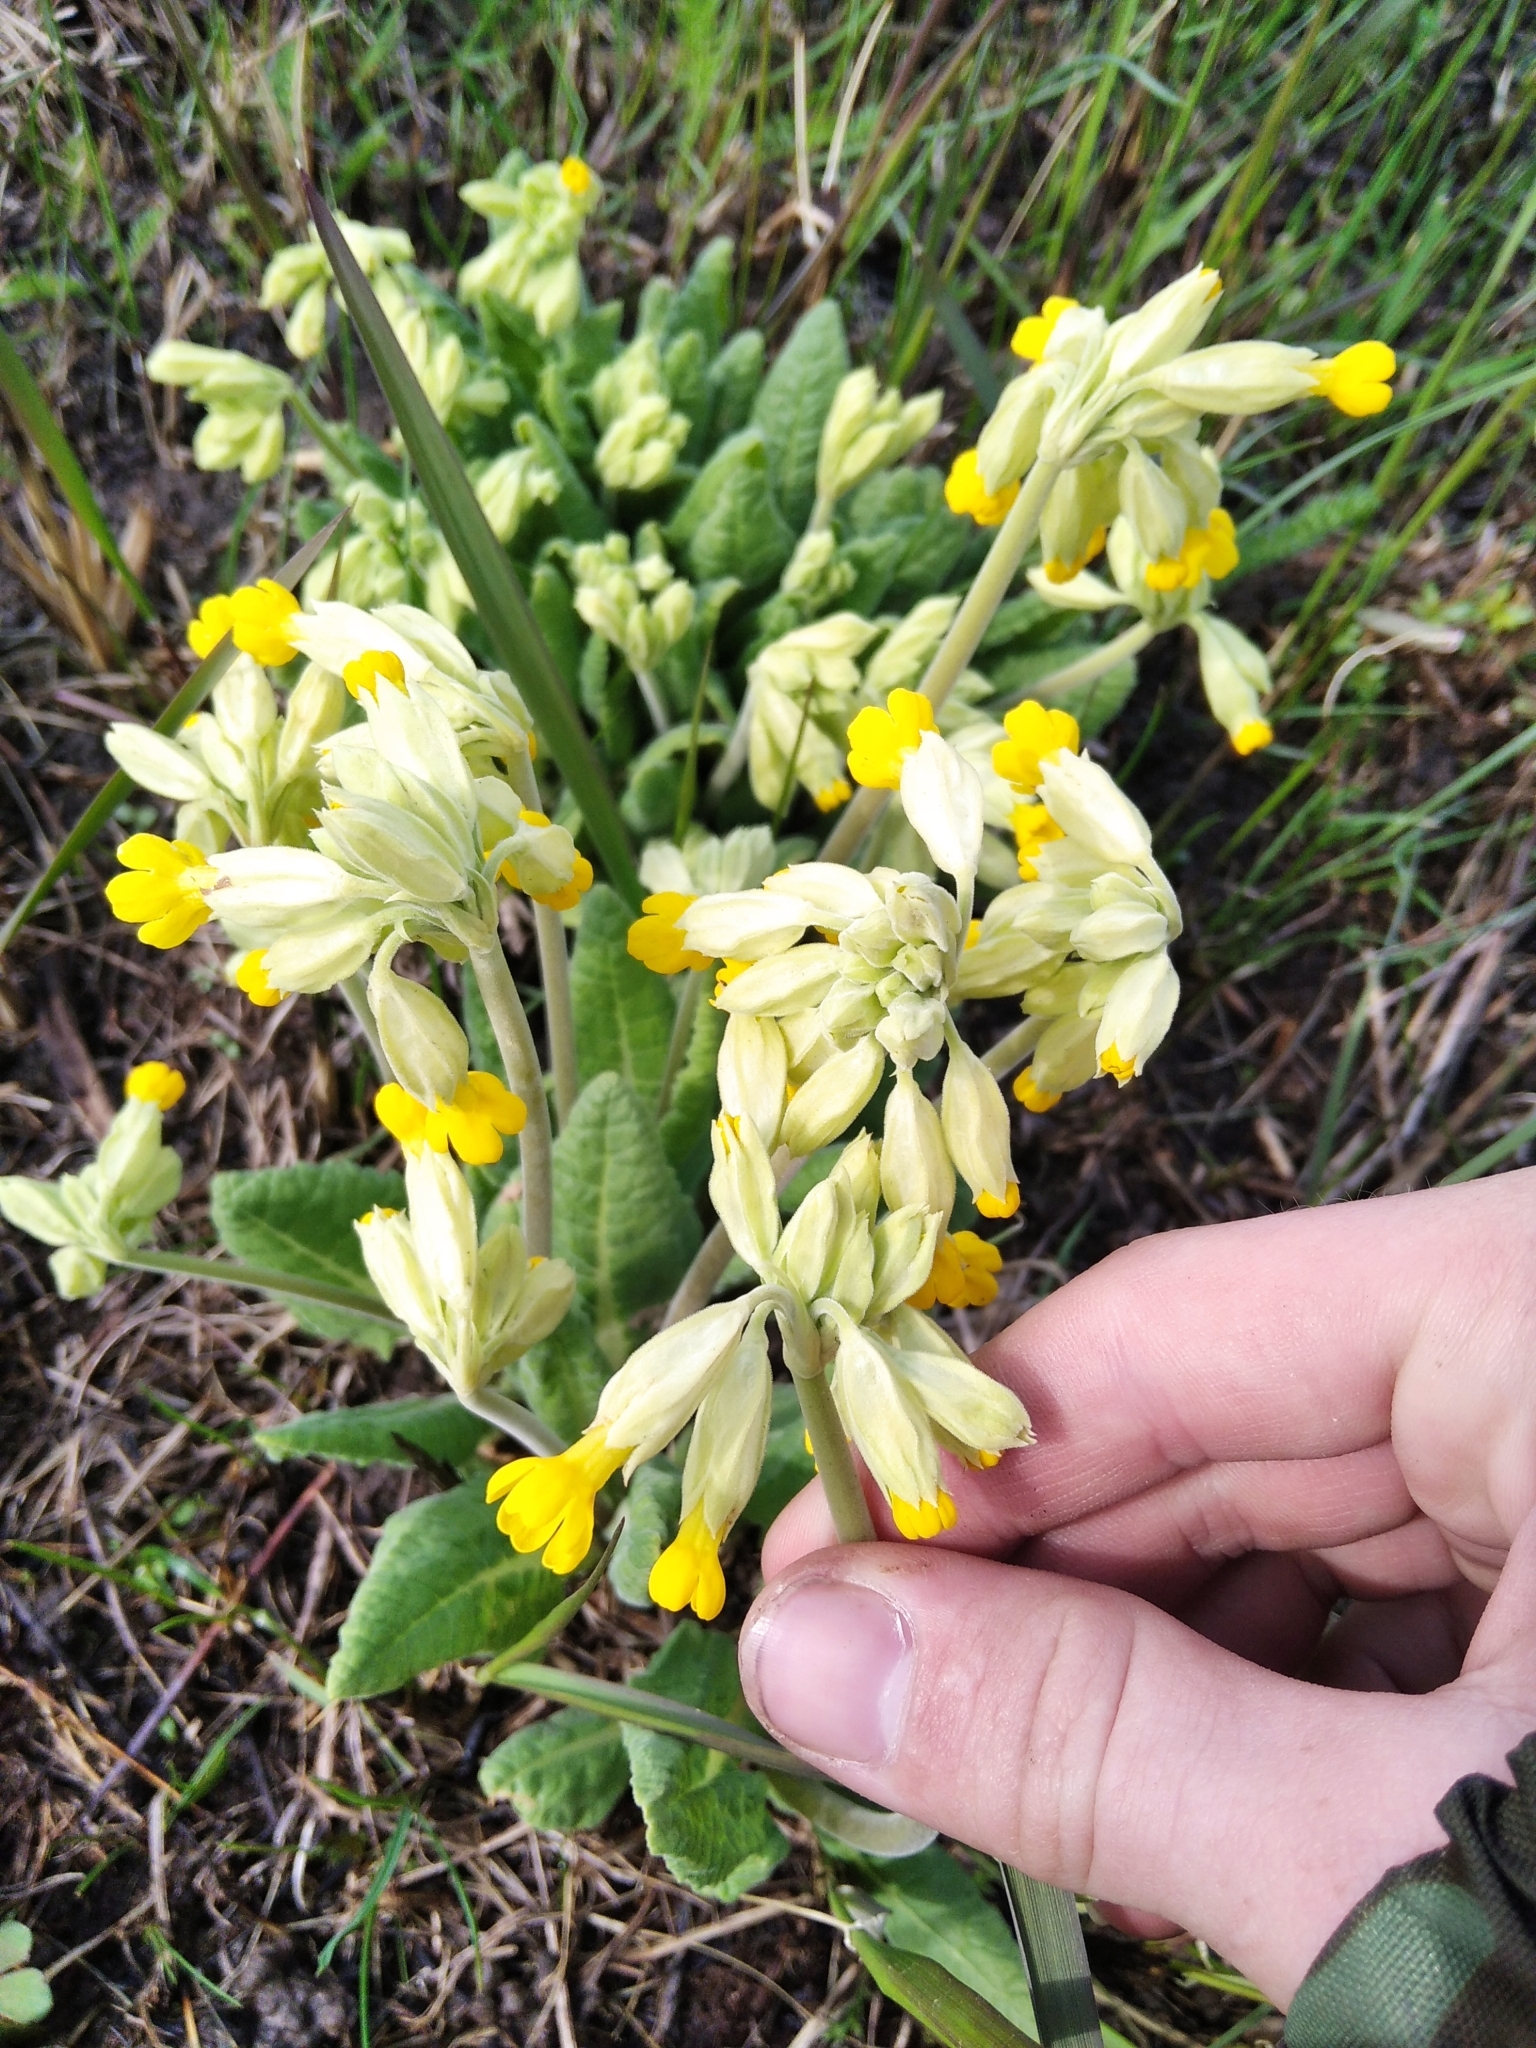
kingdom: Plantae
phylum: Tracheophyta
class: Magnoliopsida
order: Ericales
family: Primulaceae
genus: Primula
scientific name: Primula veris
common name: Cowslip
